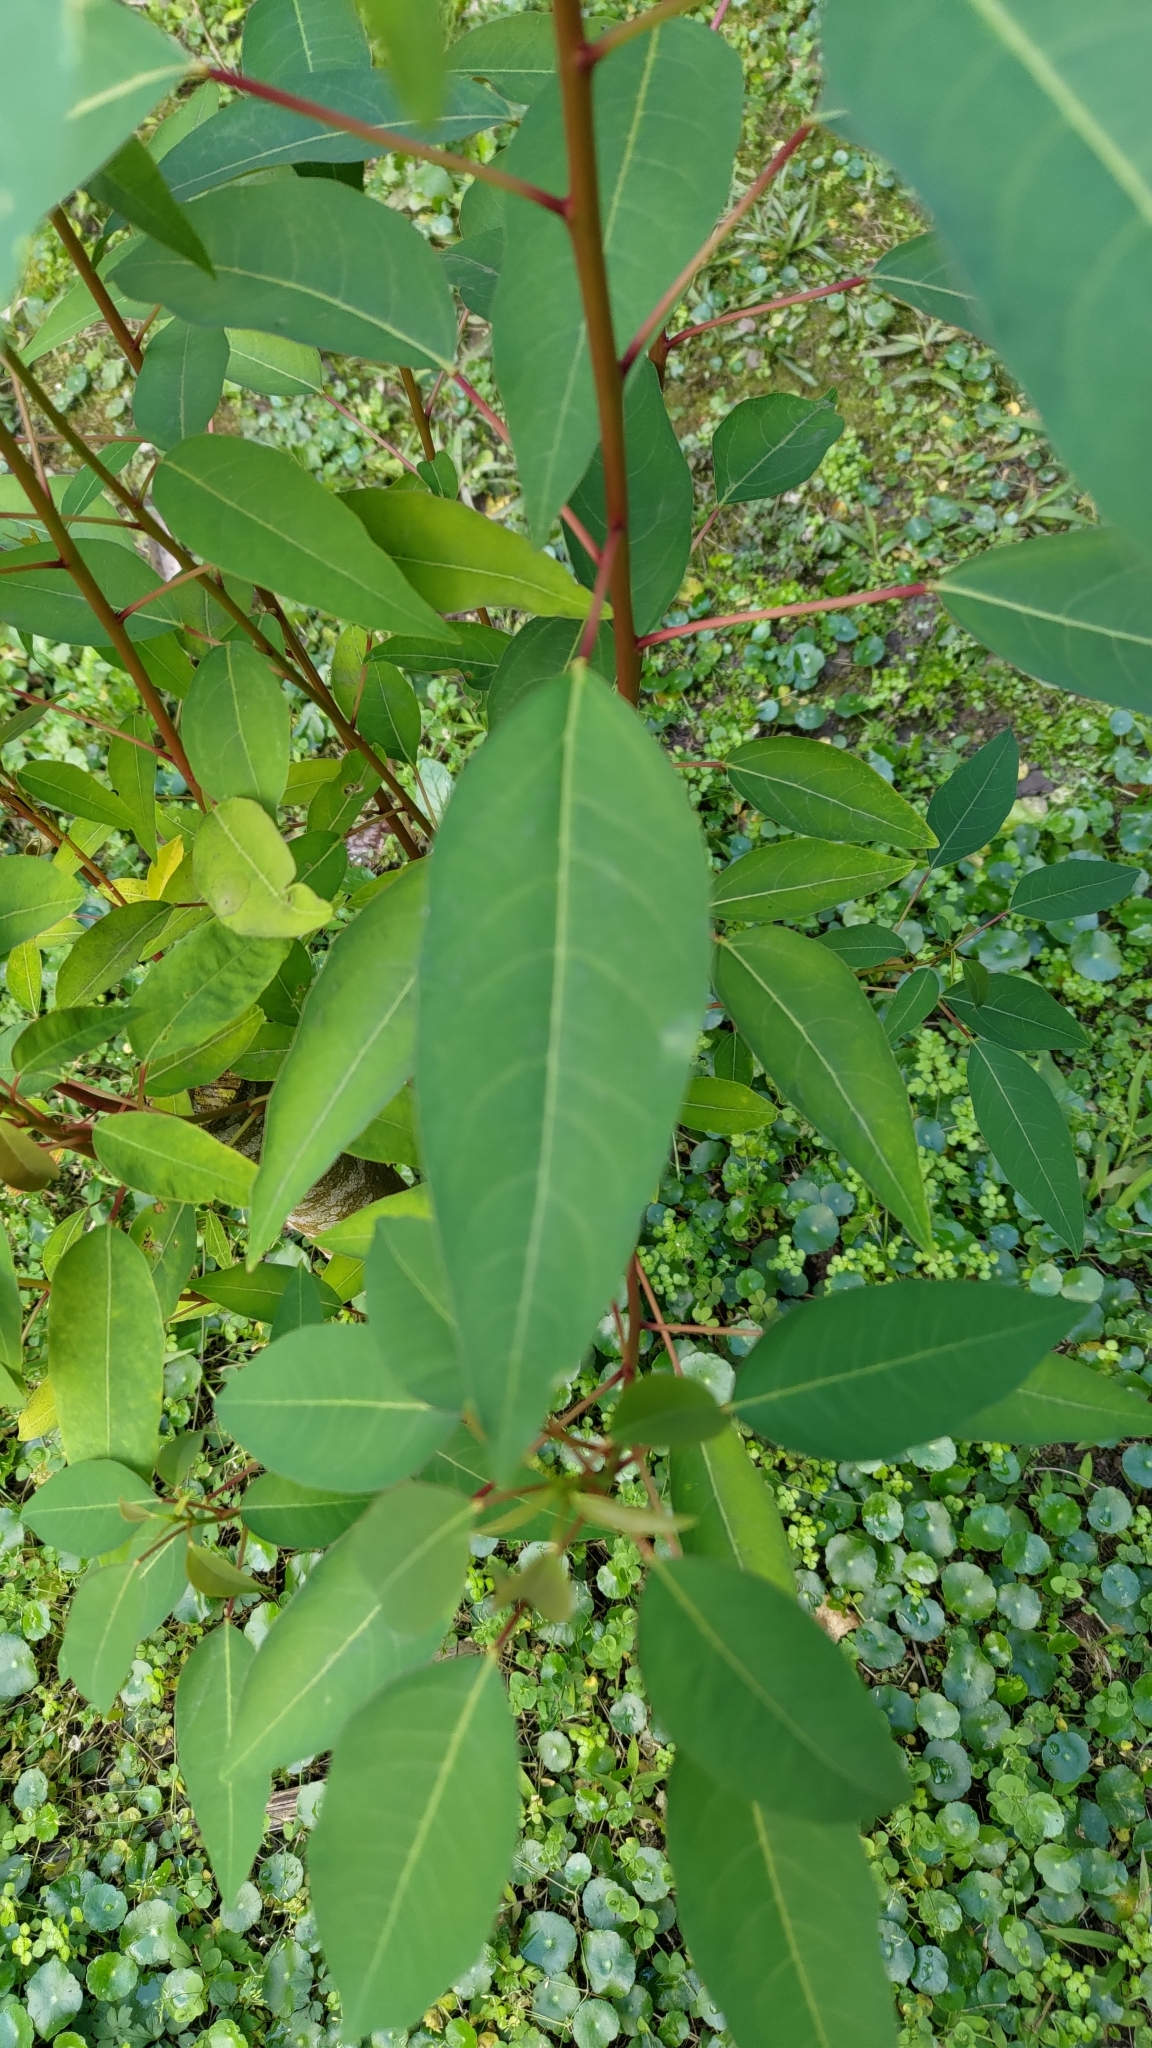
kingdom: Plantae
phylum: Tracheophyta
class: Magnoliopsida
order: Malpighiales
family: Euphorbiaceae
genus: Triadica
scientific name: Triadica cochinchinensis
